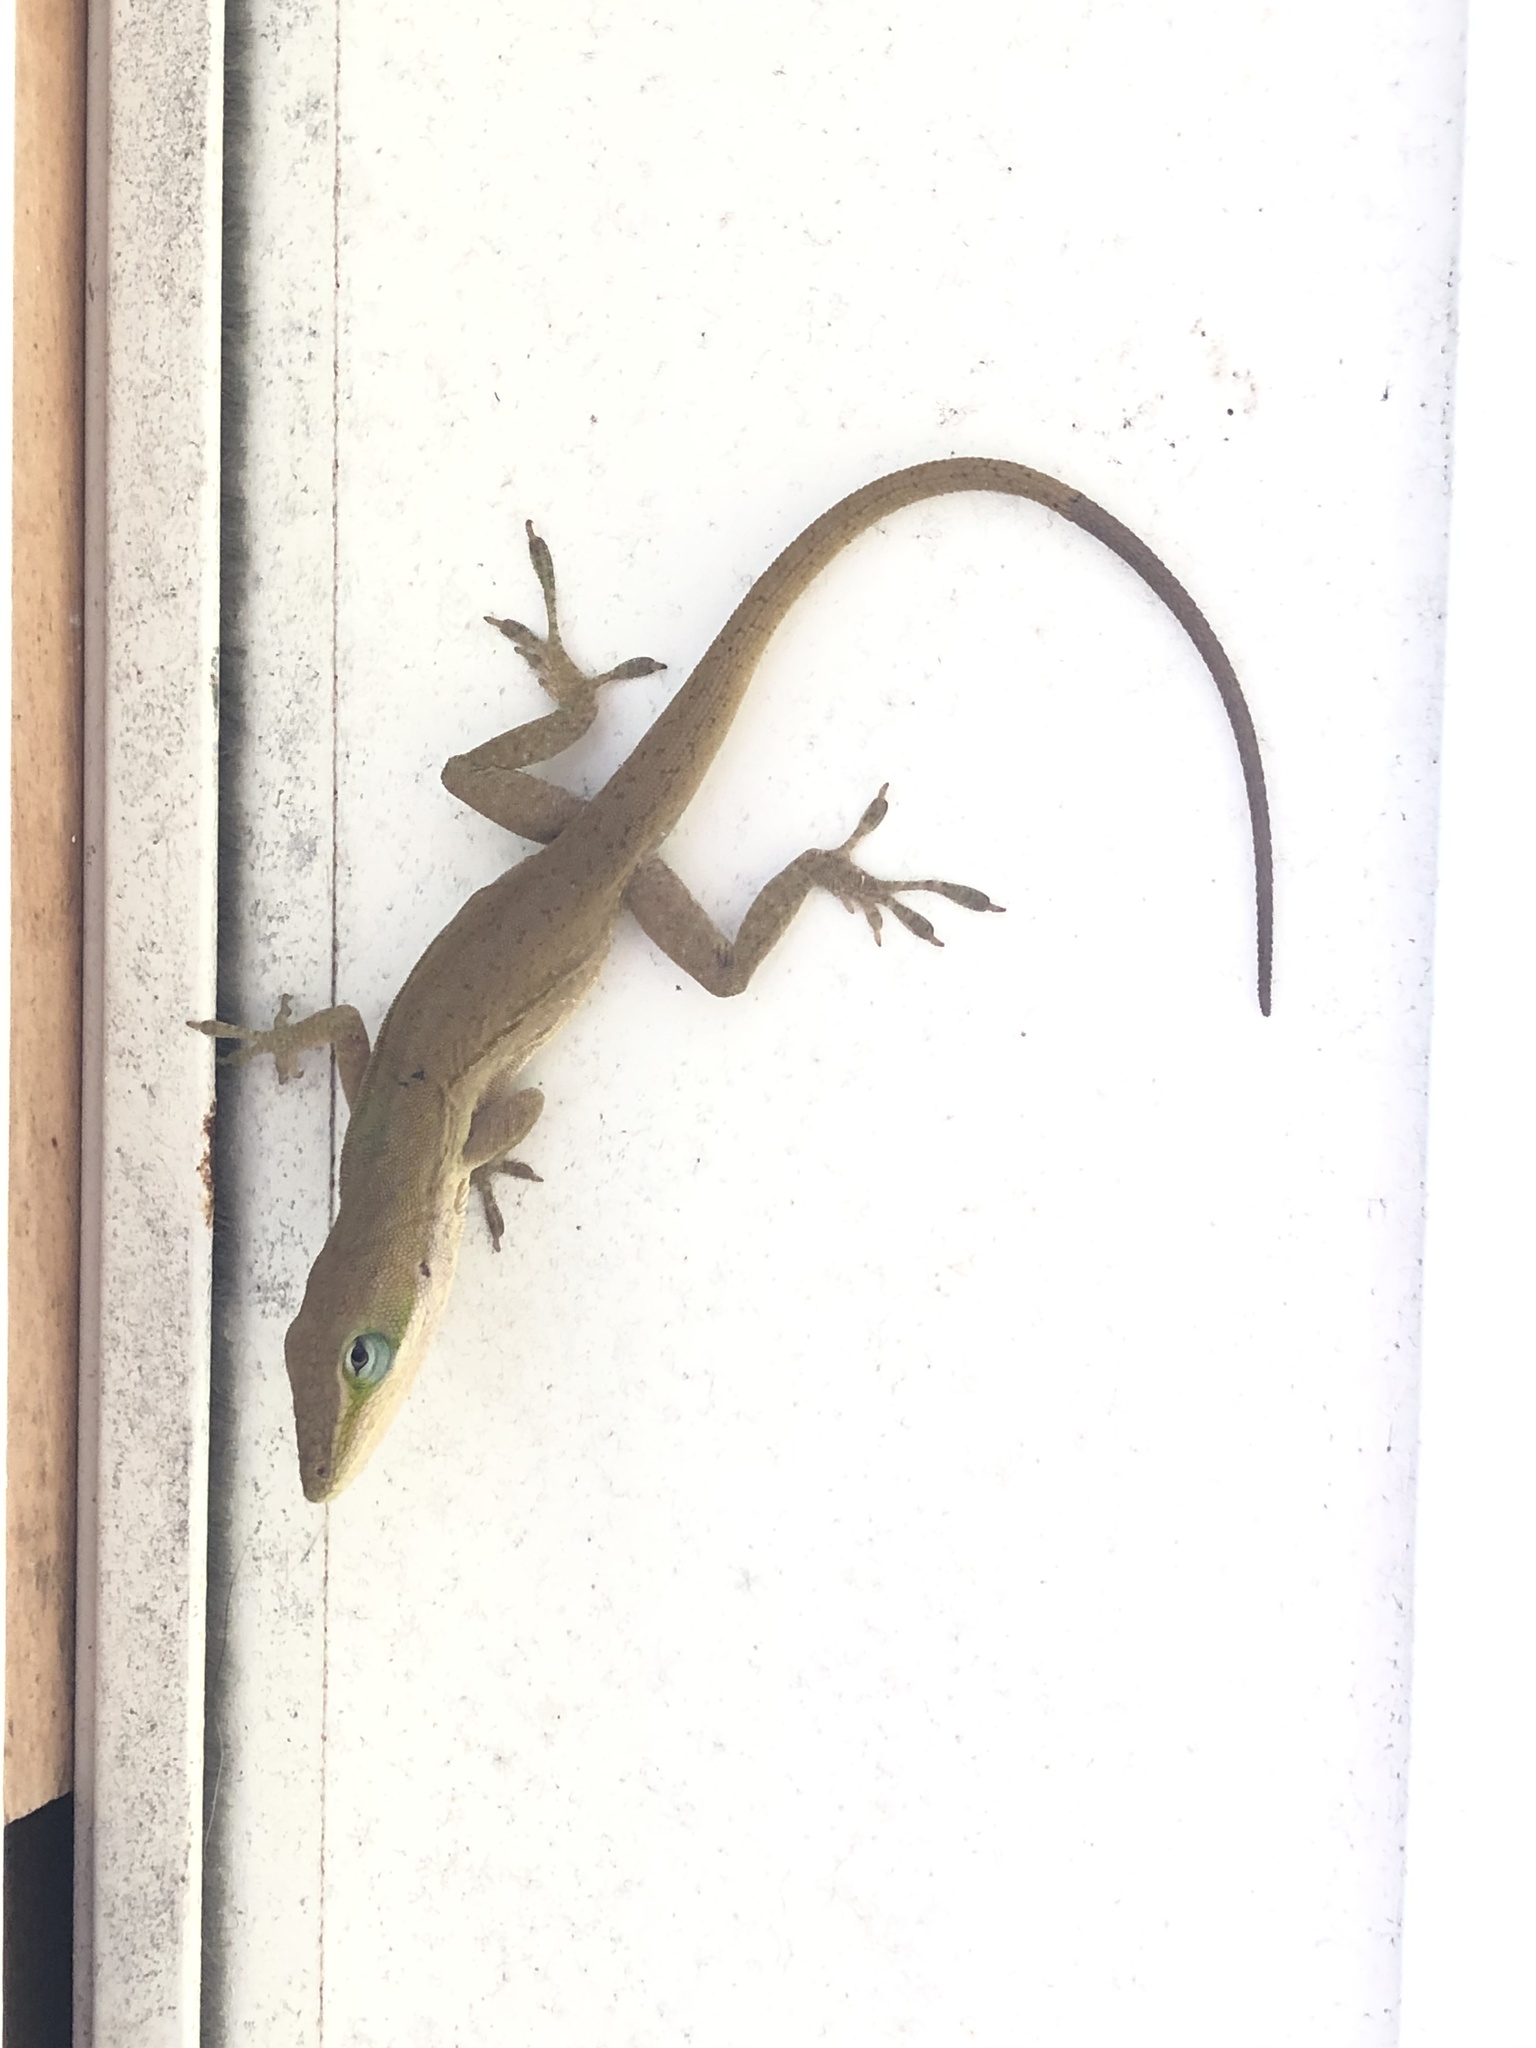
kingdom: Animalia
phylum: Chordata
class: Squamata
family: Dactyloidae
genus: Anolis
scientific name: Anolis carolinensis
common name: Green anole
